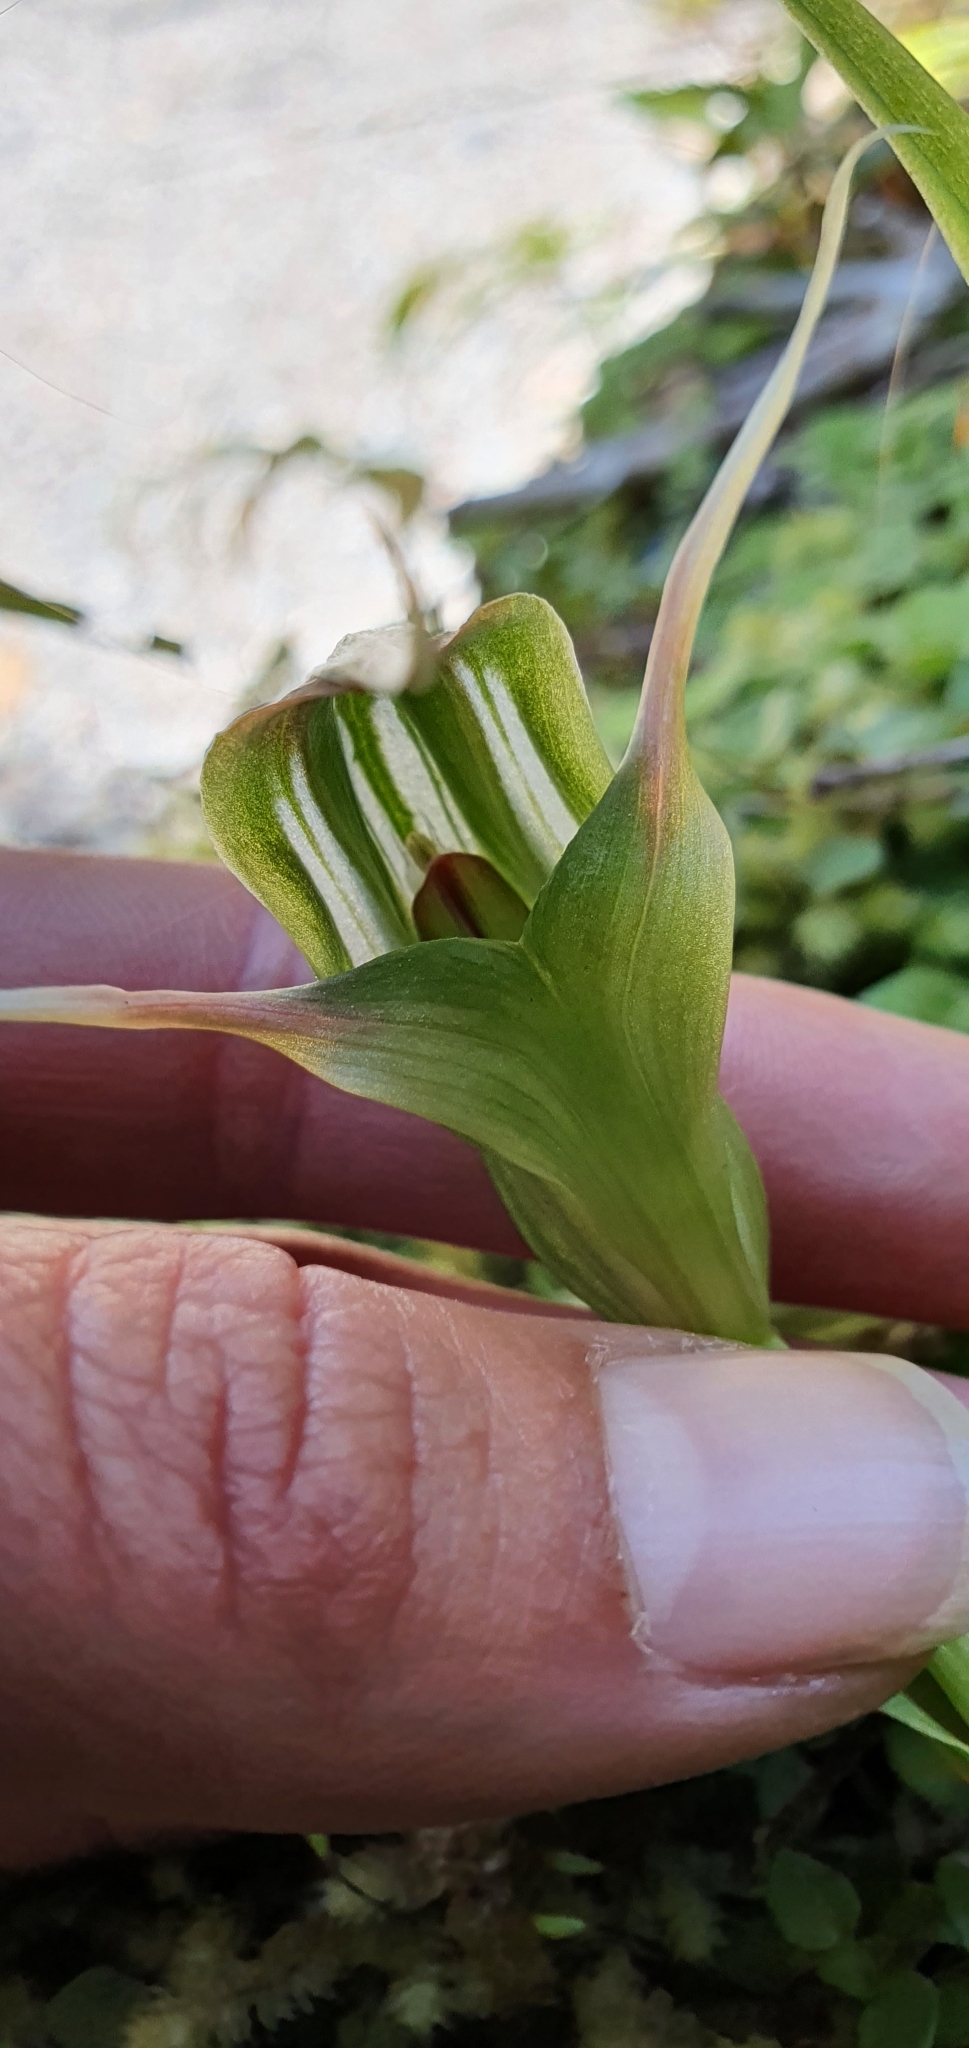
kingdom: Plantae
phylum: Tracheophyta
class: Liliopsida
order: Asparagales
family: Orchidaceae
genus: Pterostylis
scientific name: Pterostylis banksii
